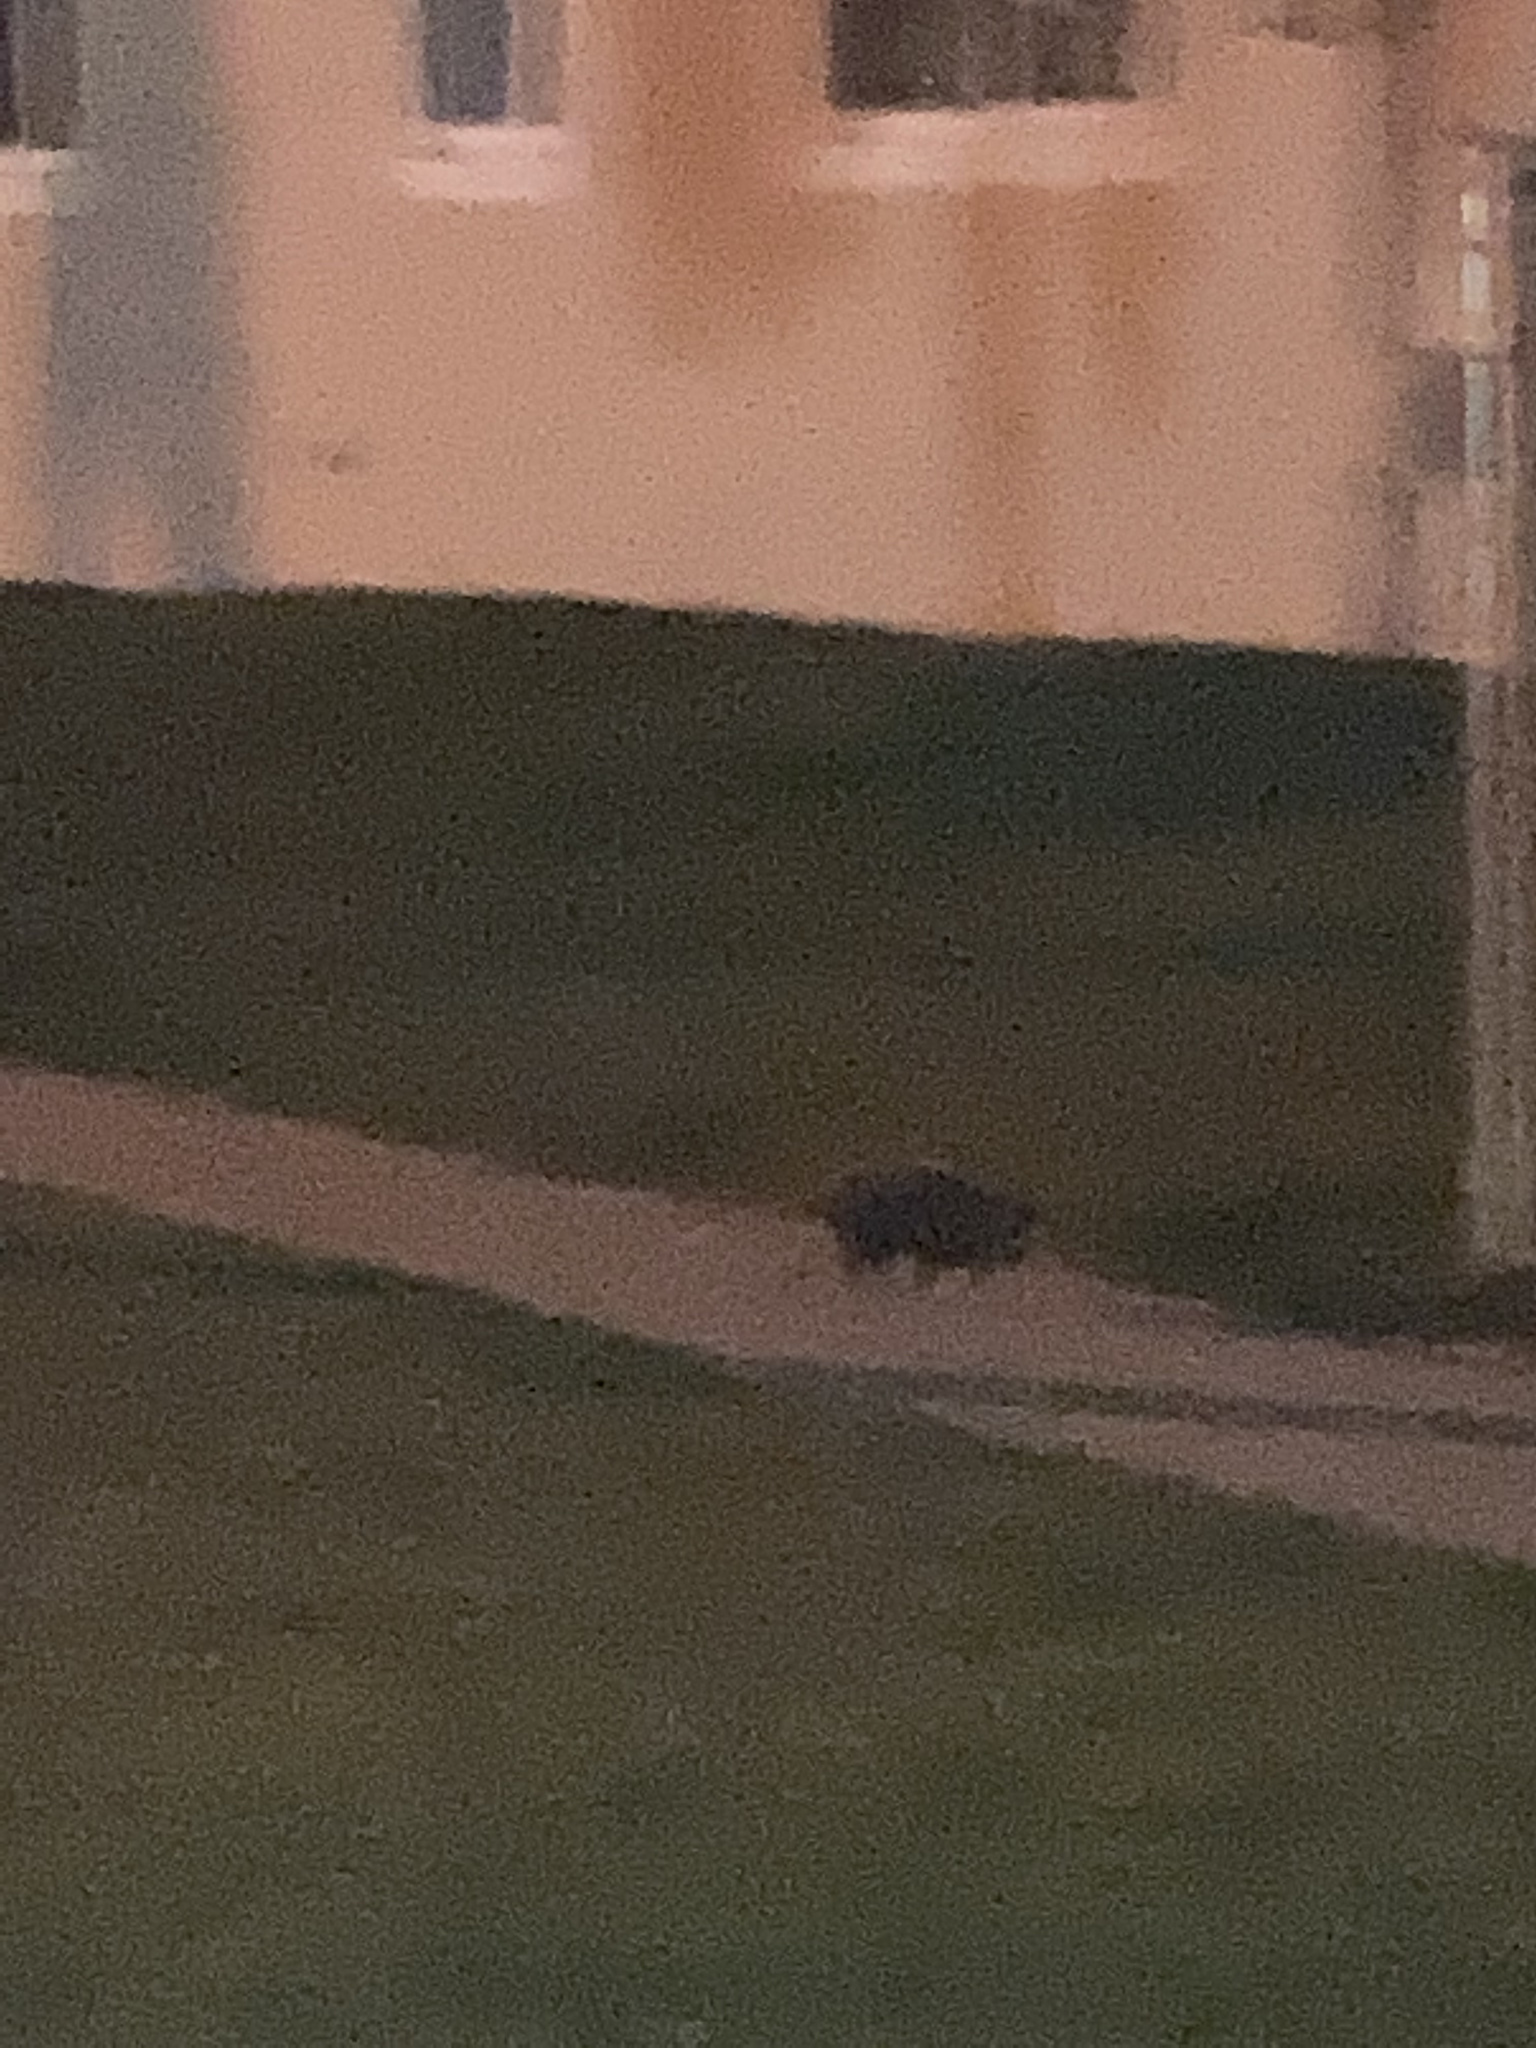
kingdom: Animalia
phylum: Chordata
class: Mammalia
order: Didelphimorphia
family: Didelphidae
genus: Didelphis
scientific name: Didelphis virginiana
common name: Virginia opossum
